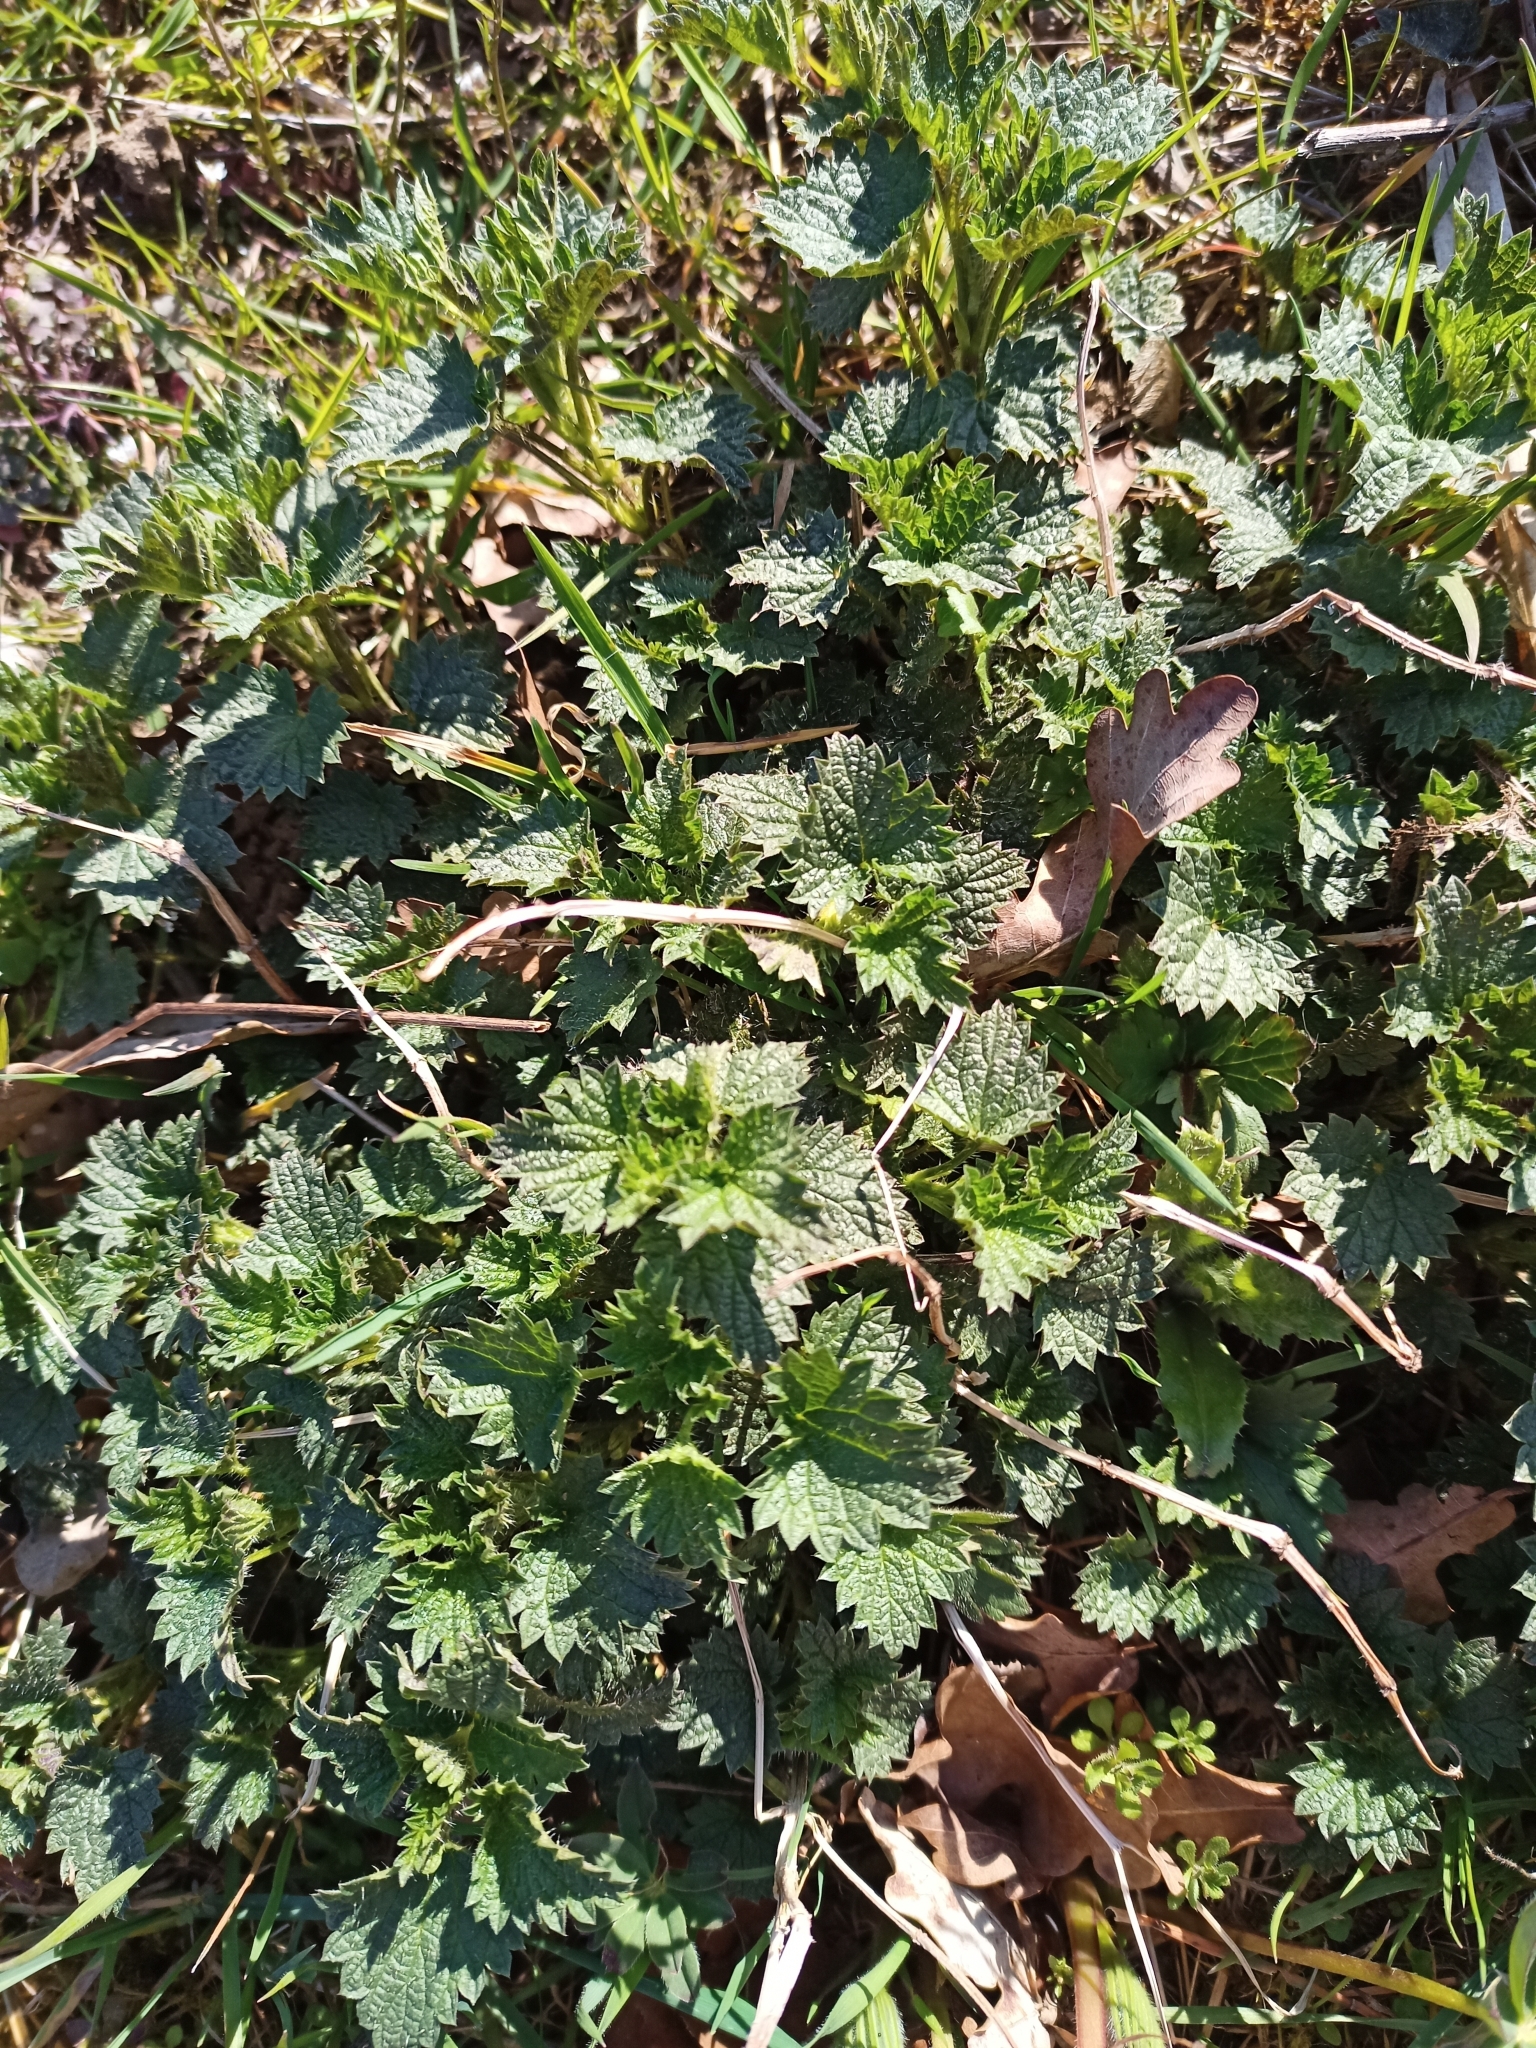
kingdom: Plantae
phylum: Tracheophyta
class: Magnoliopsida
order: Rosales
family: Urticaceae
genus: Urtica
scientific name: Urtica dioica
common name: Common nettle
